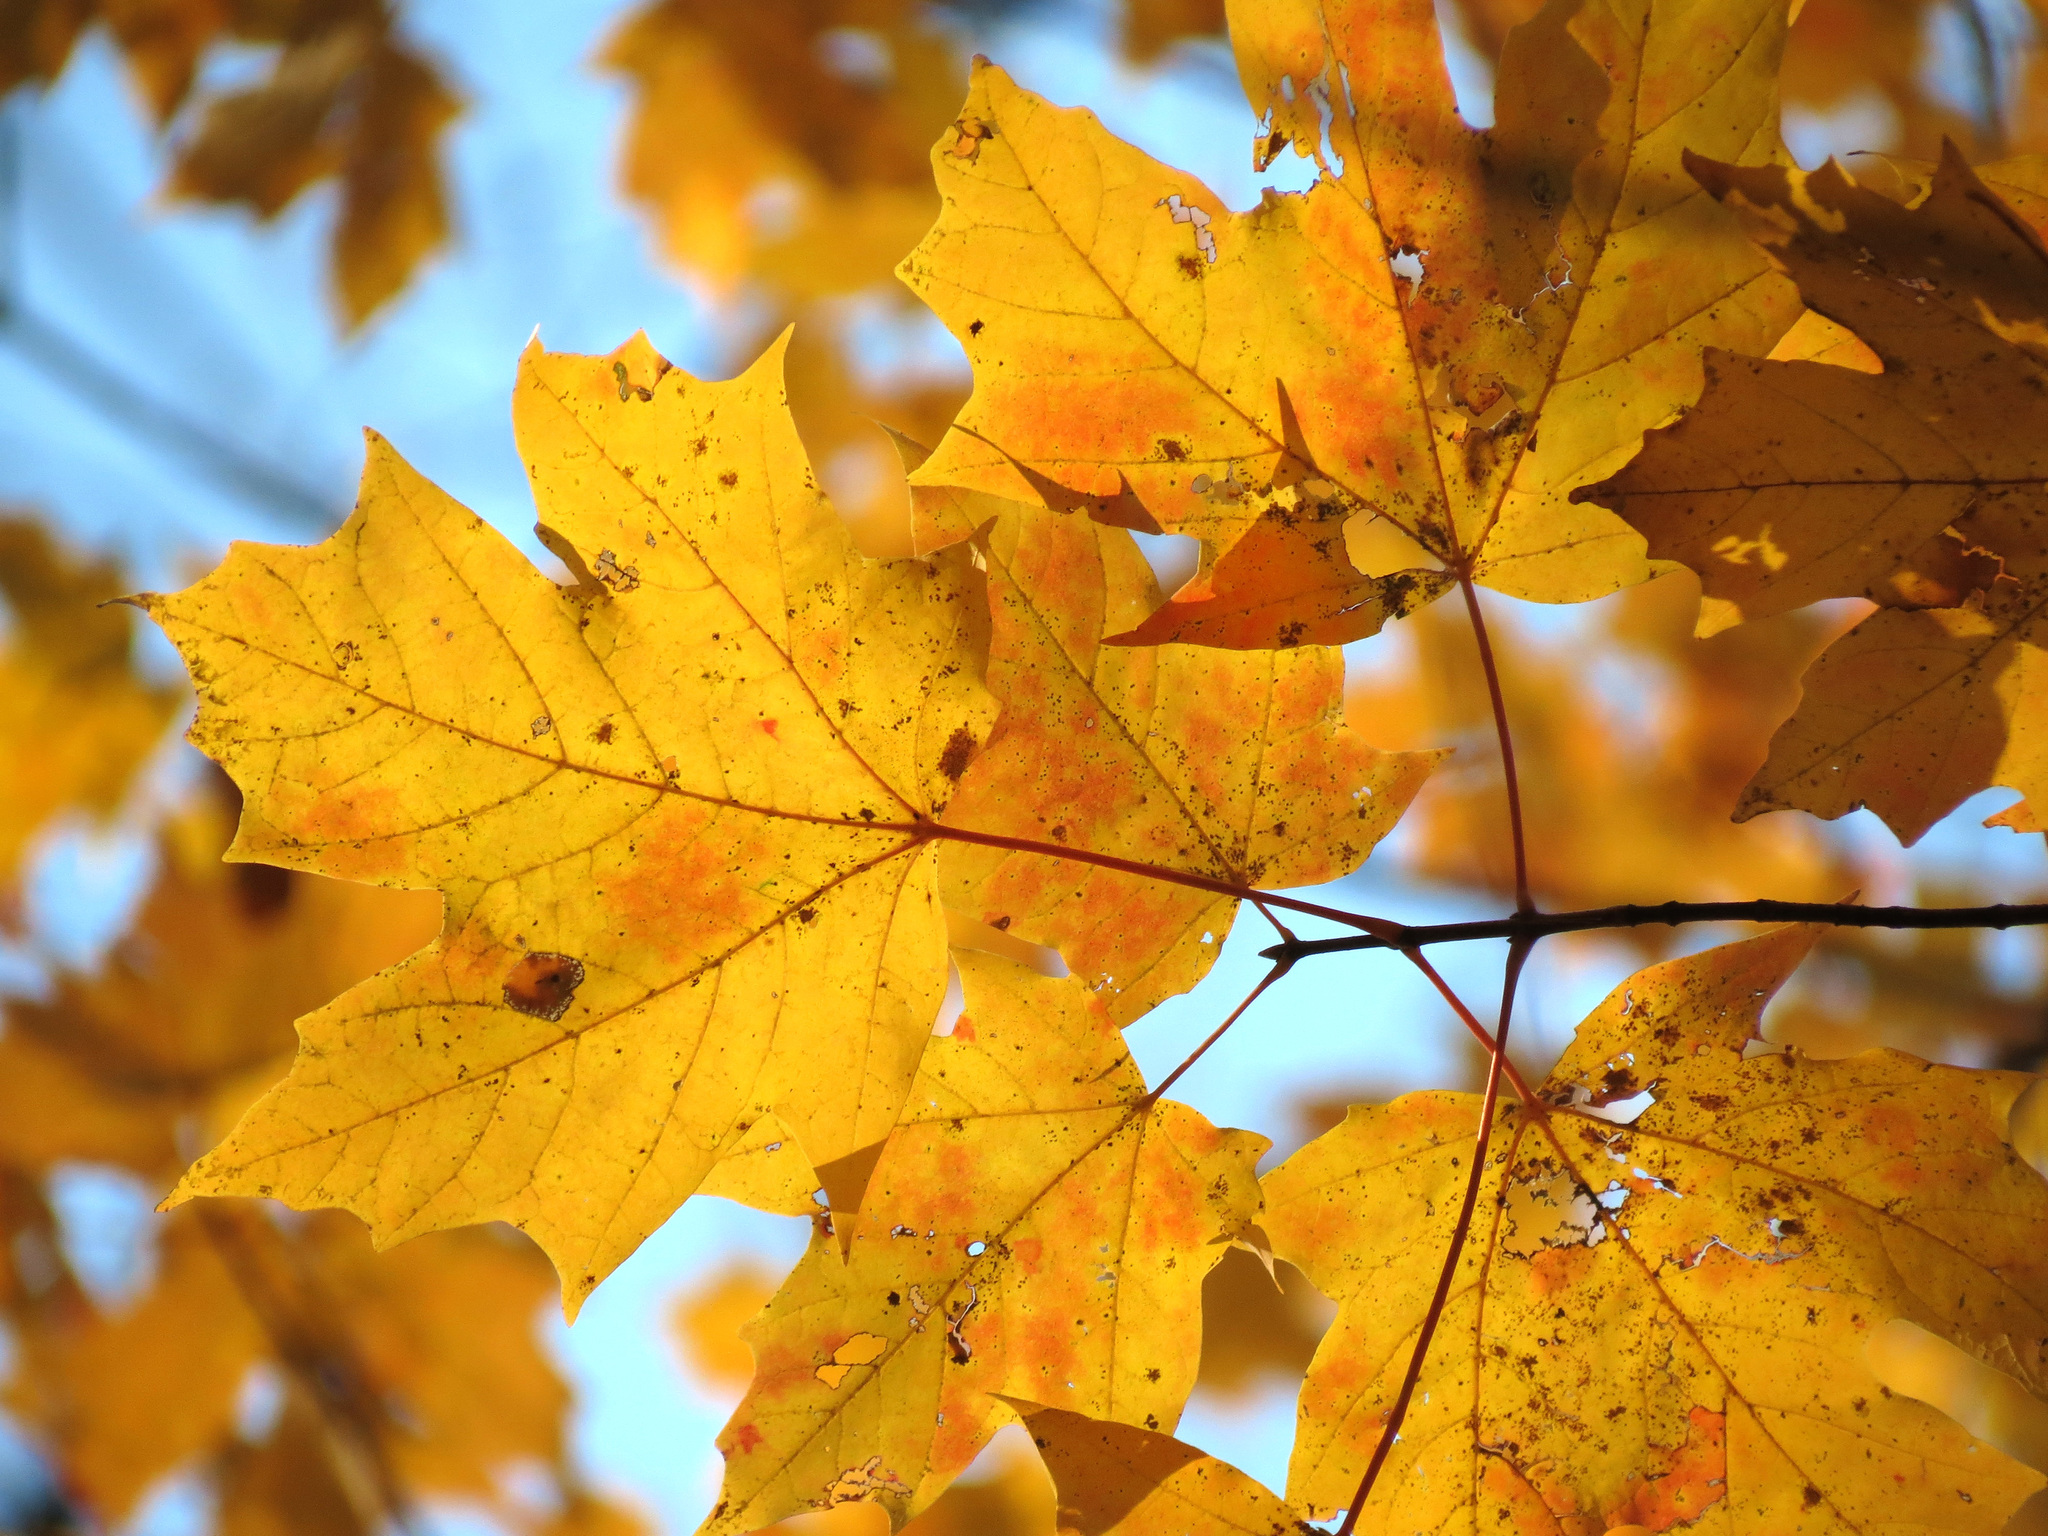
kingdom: Plantae
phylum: Tracheophyta
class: Magnoliopsida
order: Sapindales
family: Sapindaceae
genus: Acer
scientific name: Acer saccharum
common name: Sugar maple
